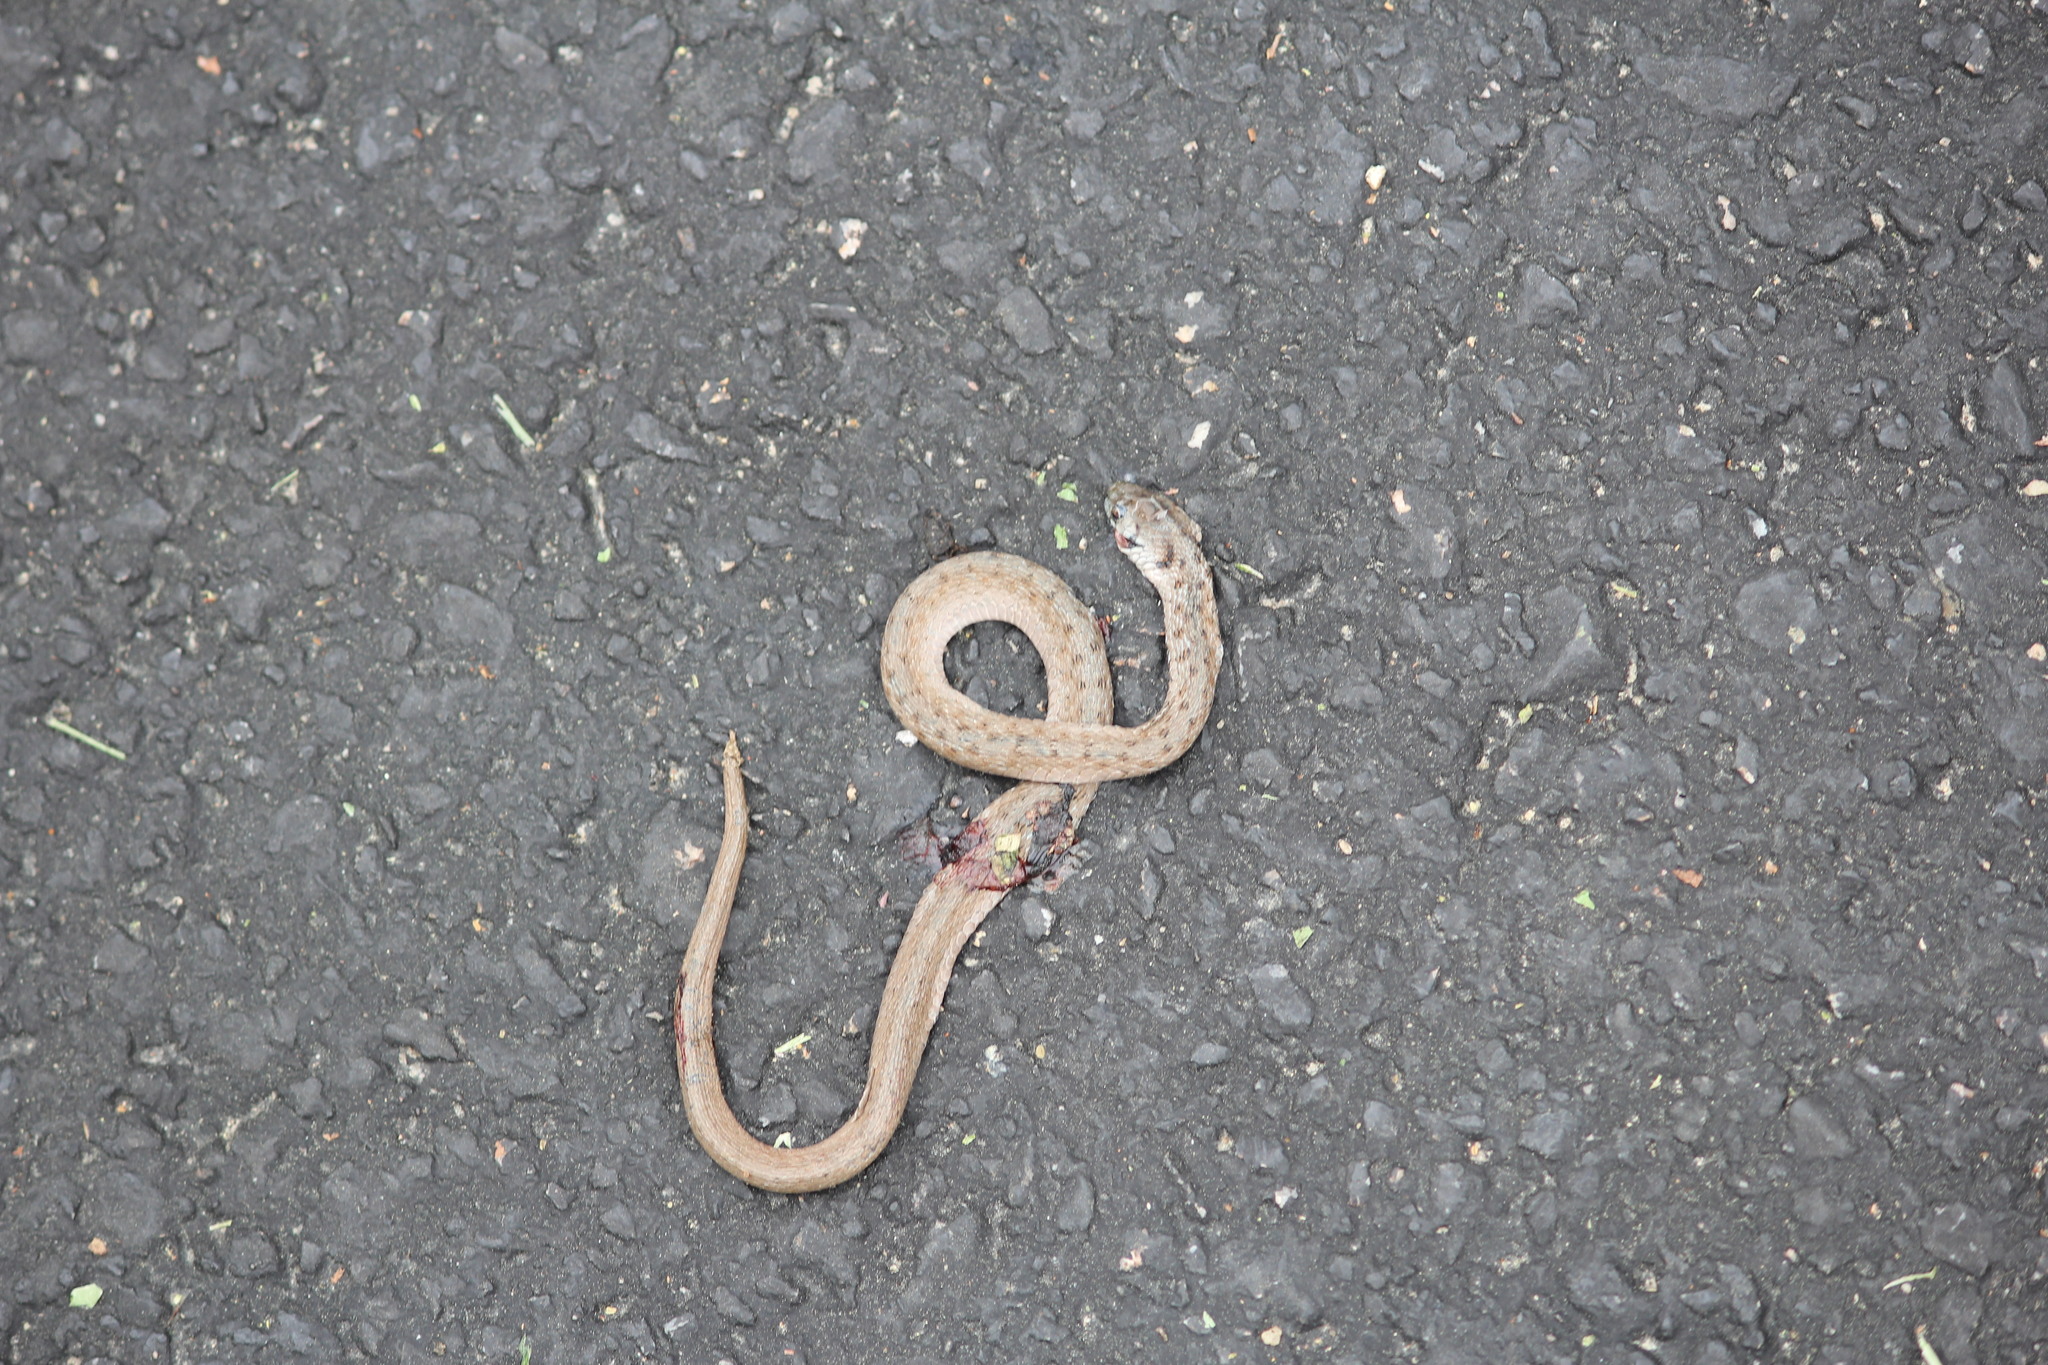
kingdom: Animalia
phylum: Chordata
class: Squamata
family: Colubridae
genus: Storeria
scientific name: Storeria dekayi
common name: (dekay’s) brown snake
